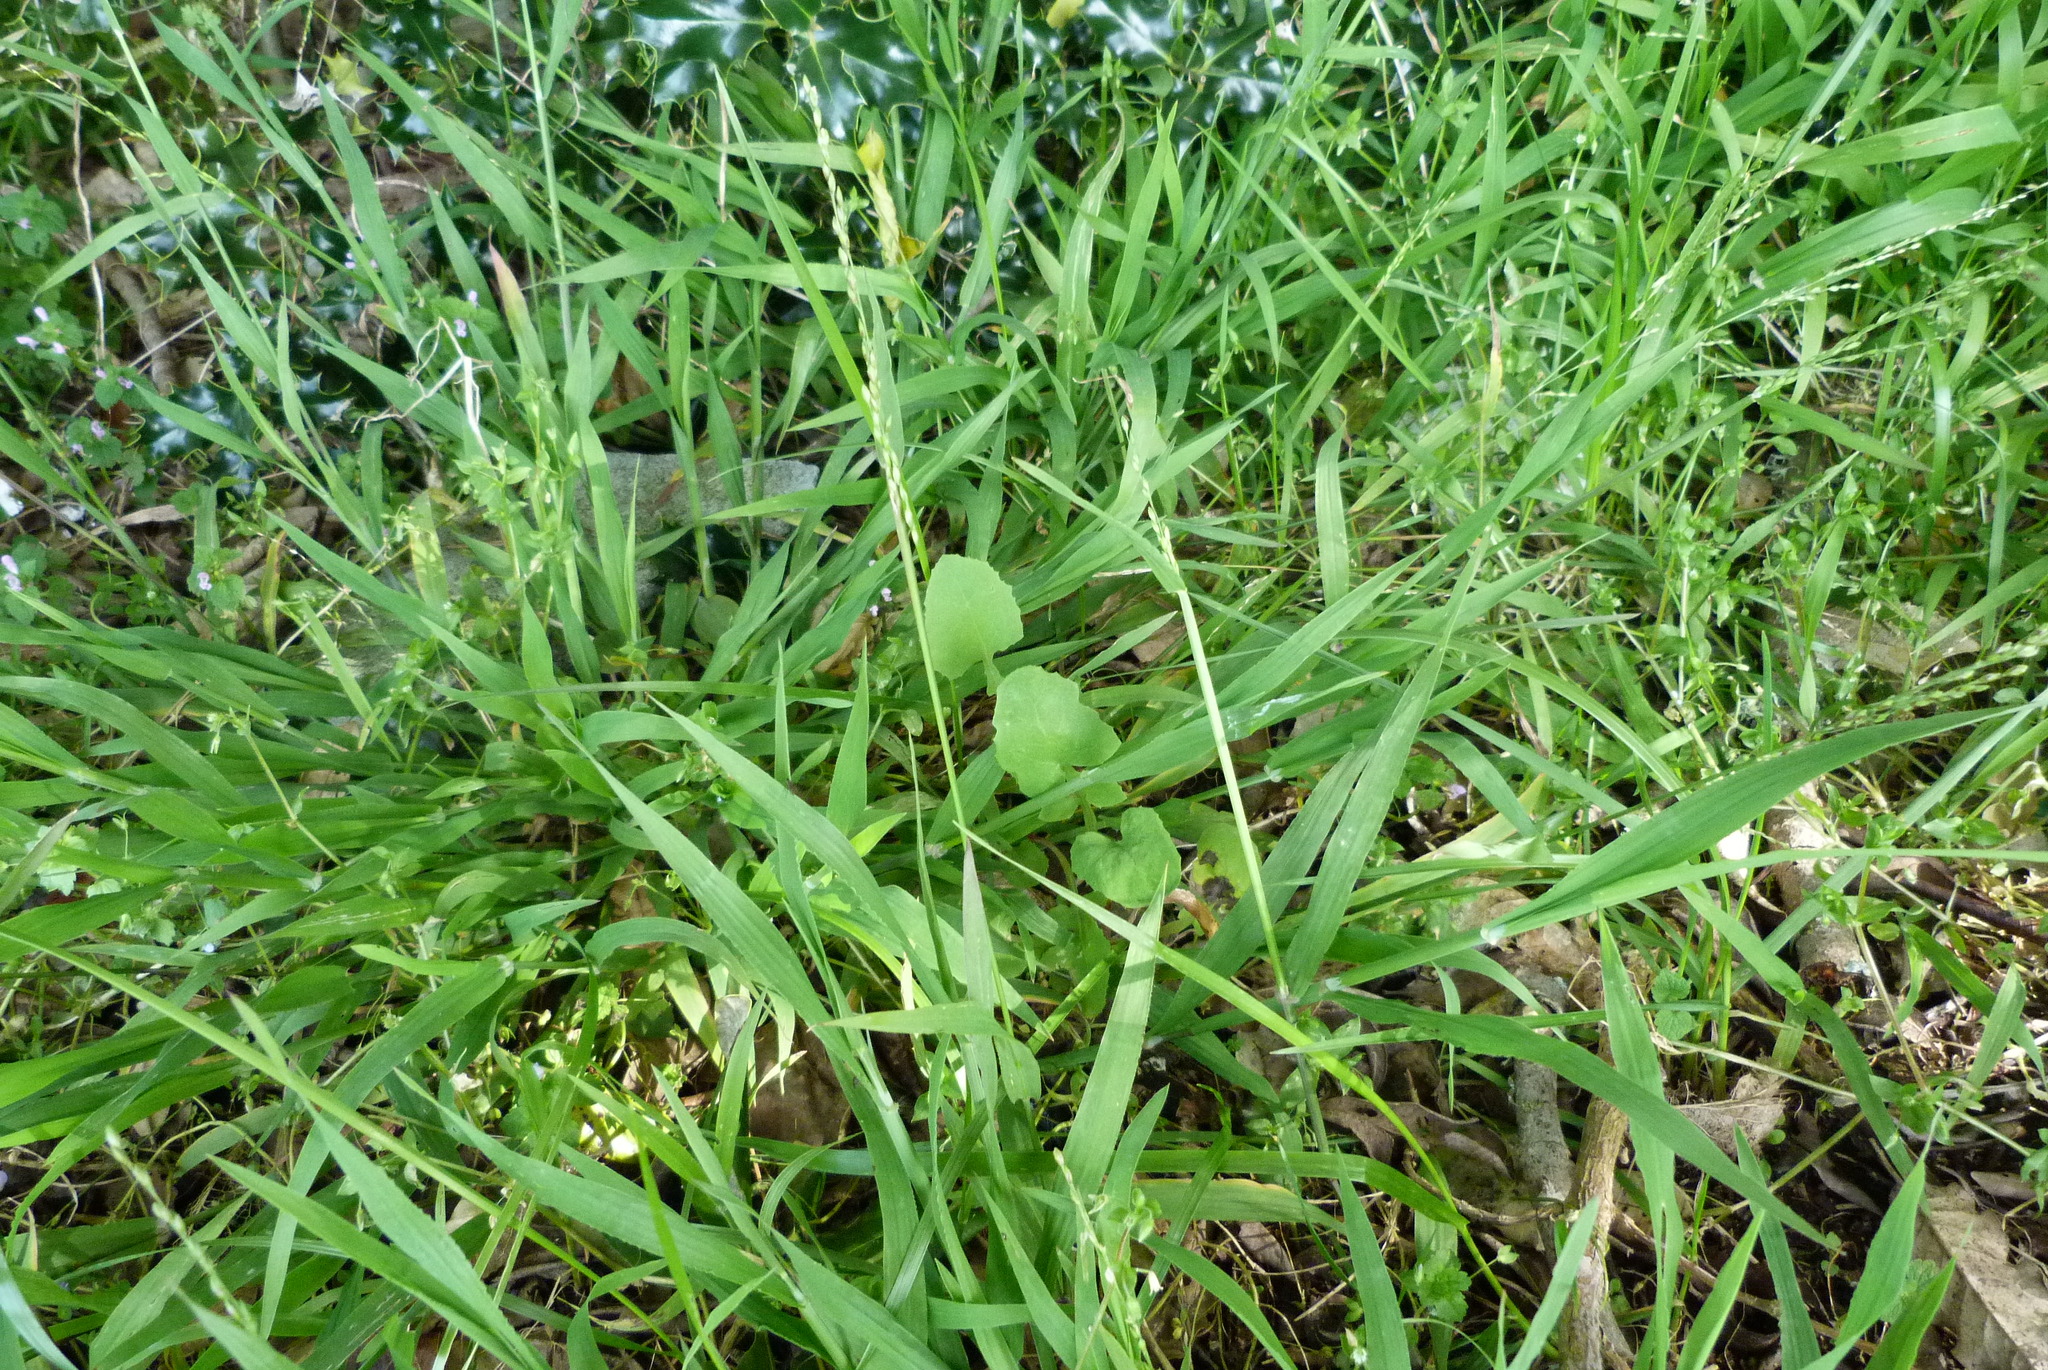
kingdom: Plantae
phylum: Tracheophyta
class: Liliopsida
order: Poales
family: Poaceae
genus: Ehrharta
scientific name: Ehrharta erecta
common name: Panic veldtgrass
